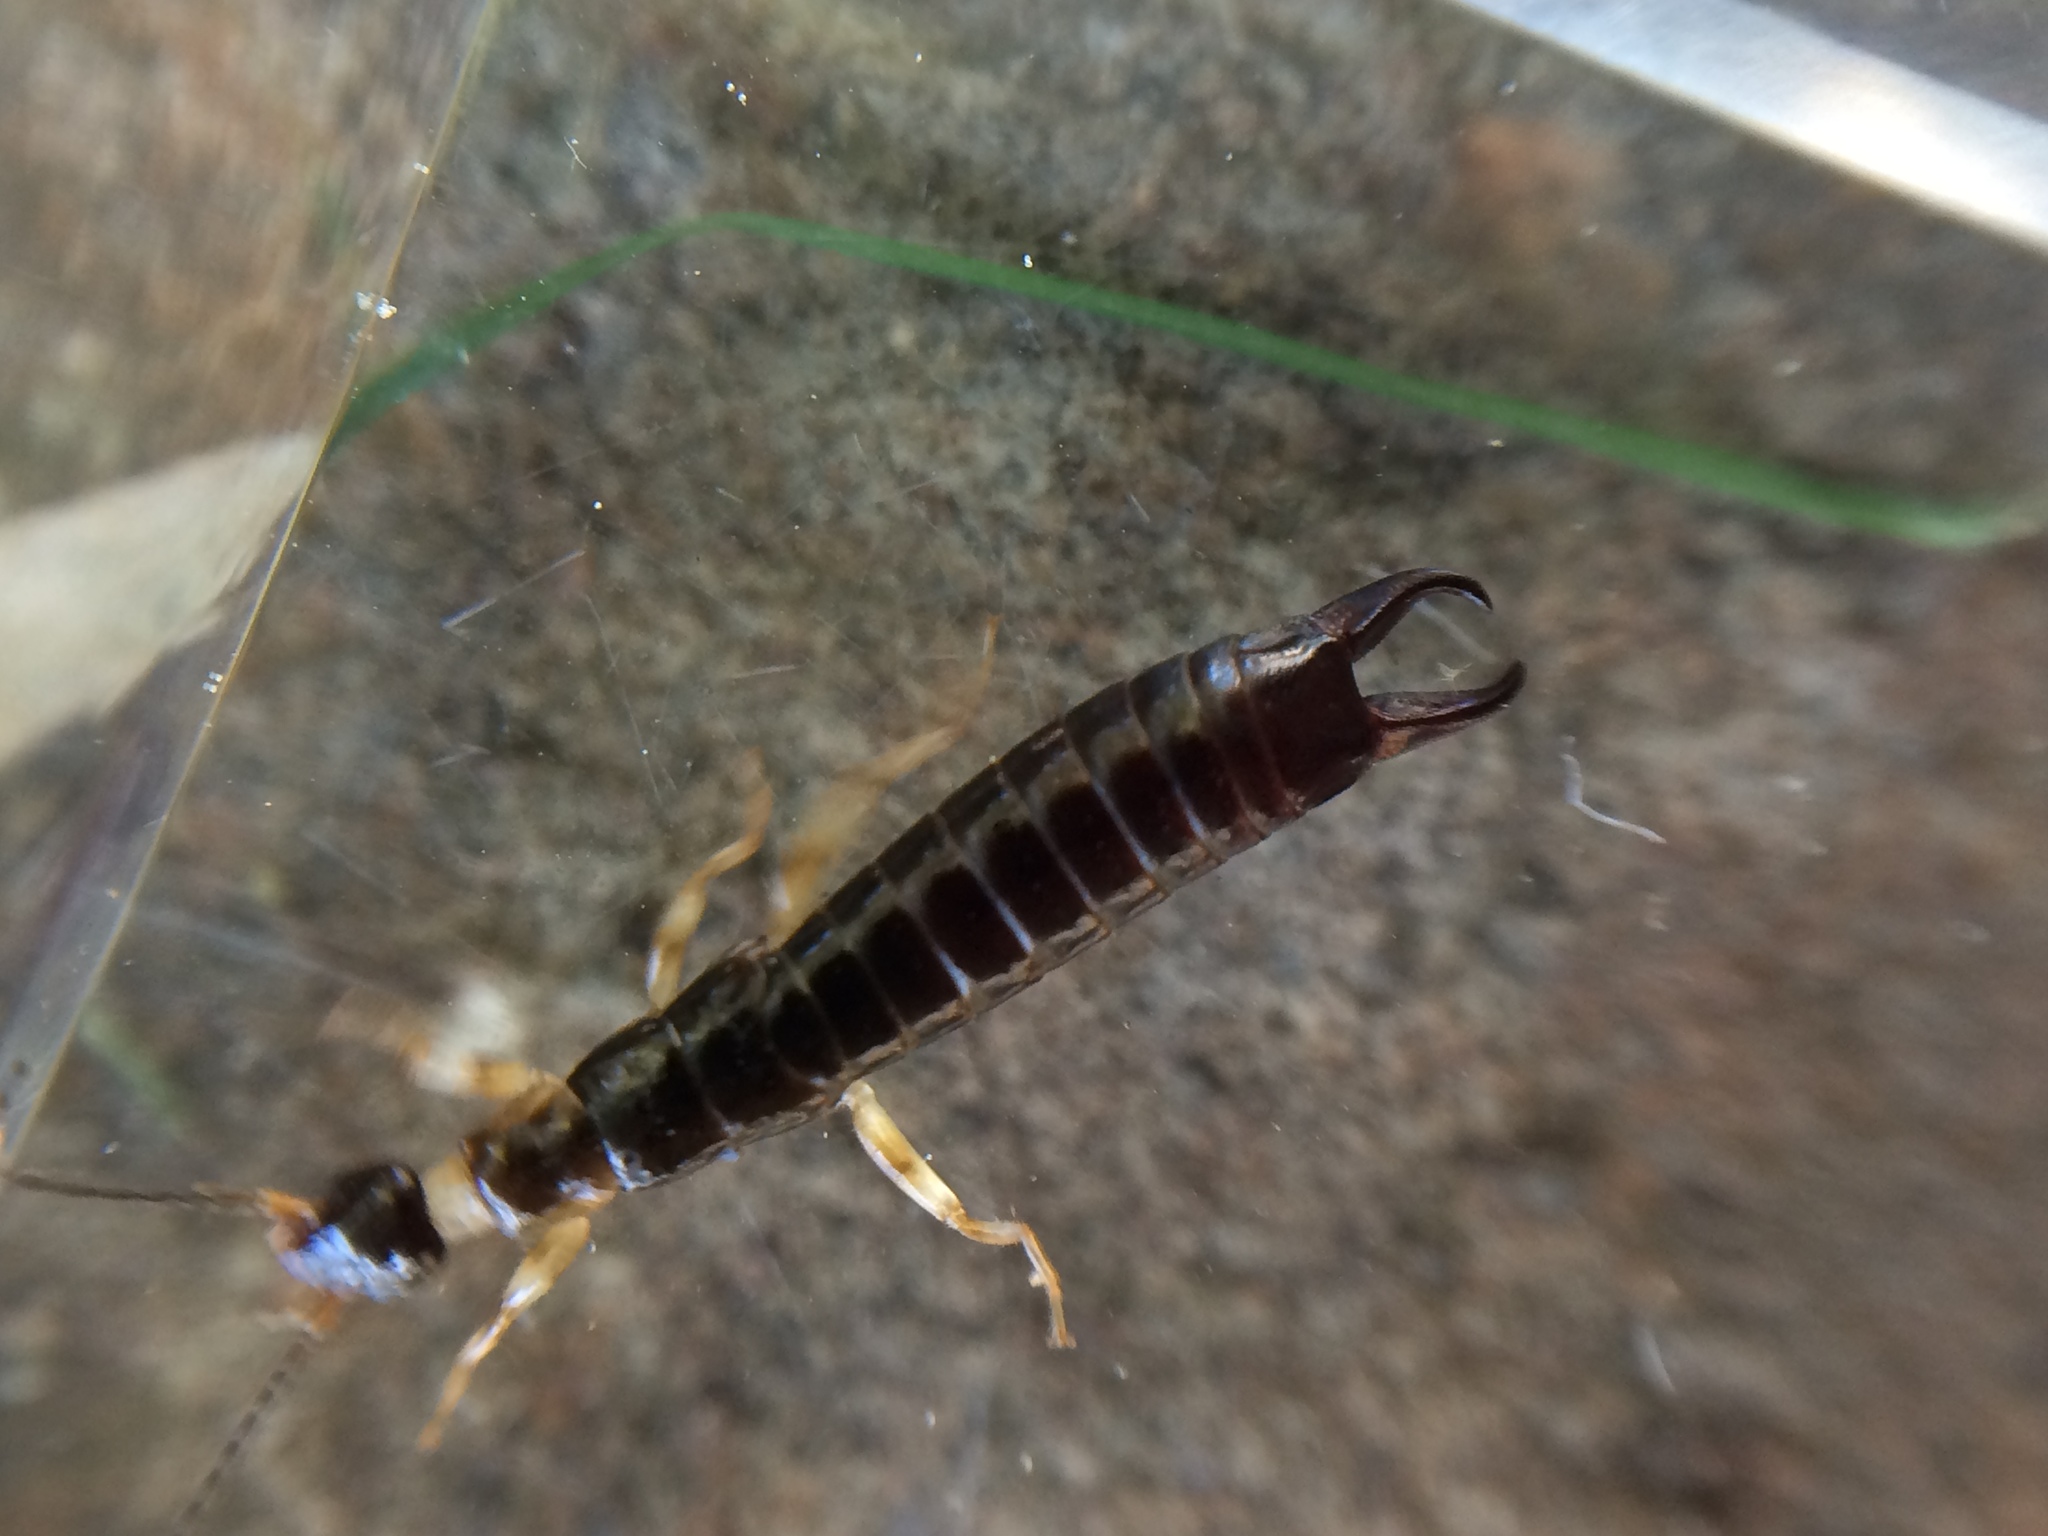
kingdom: Animalia
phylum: Arthropoda
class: Insecta
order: Dermaptera
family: Anisolabididae
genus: Euborellia
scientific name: Euborellia annulipes
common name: Ringlegged earwig
